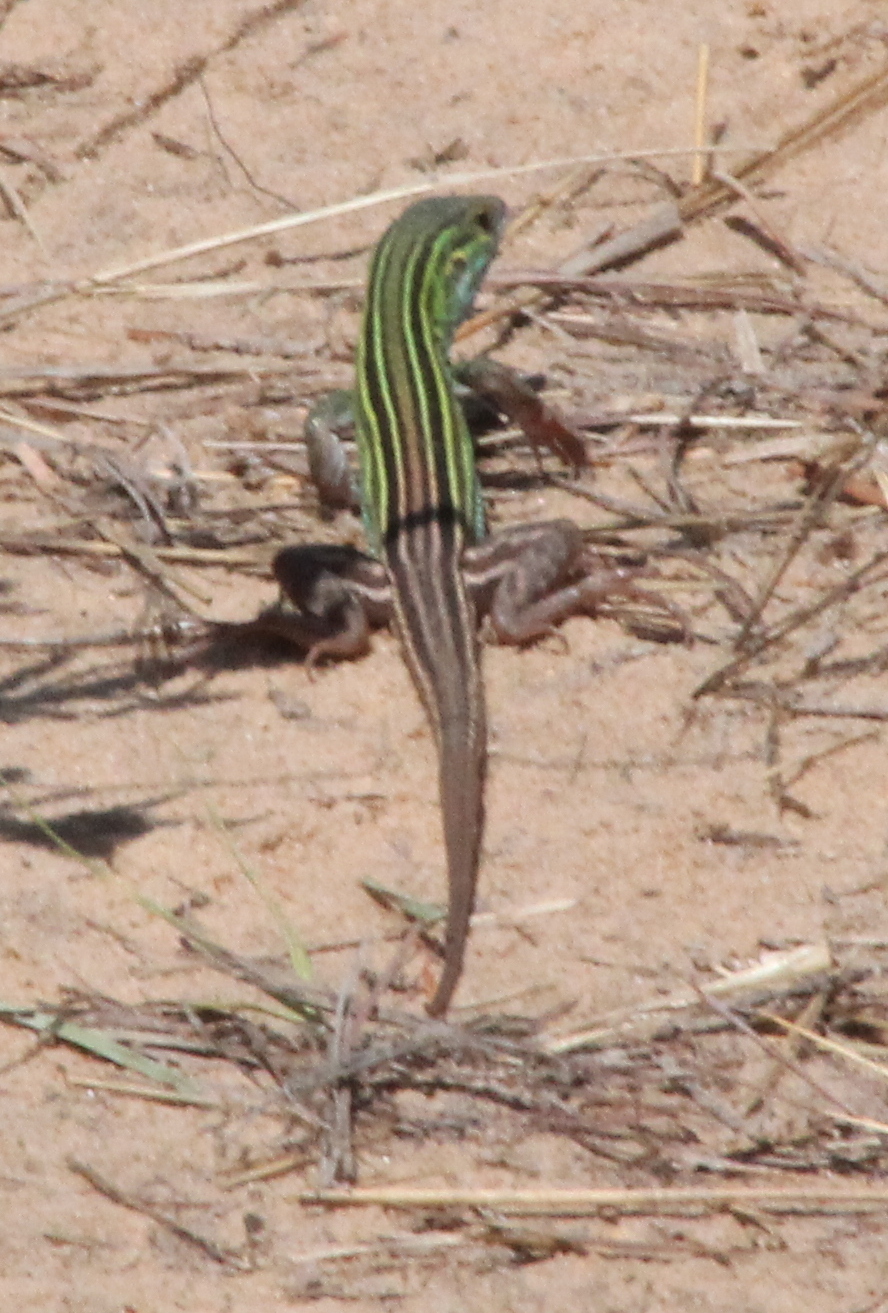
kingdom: Animalia
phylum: Chordata
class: Squamata
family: Teiidae
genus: Aspidoscelis
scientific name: Aspidoscelis sexlineatus
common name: Six-lined racerunner
